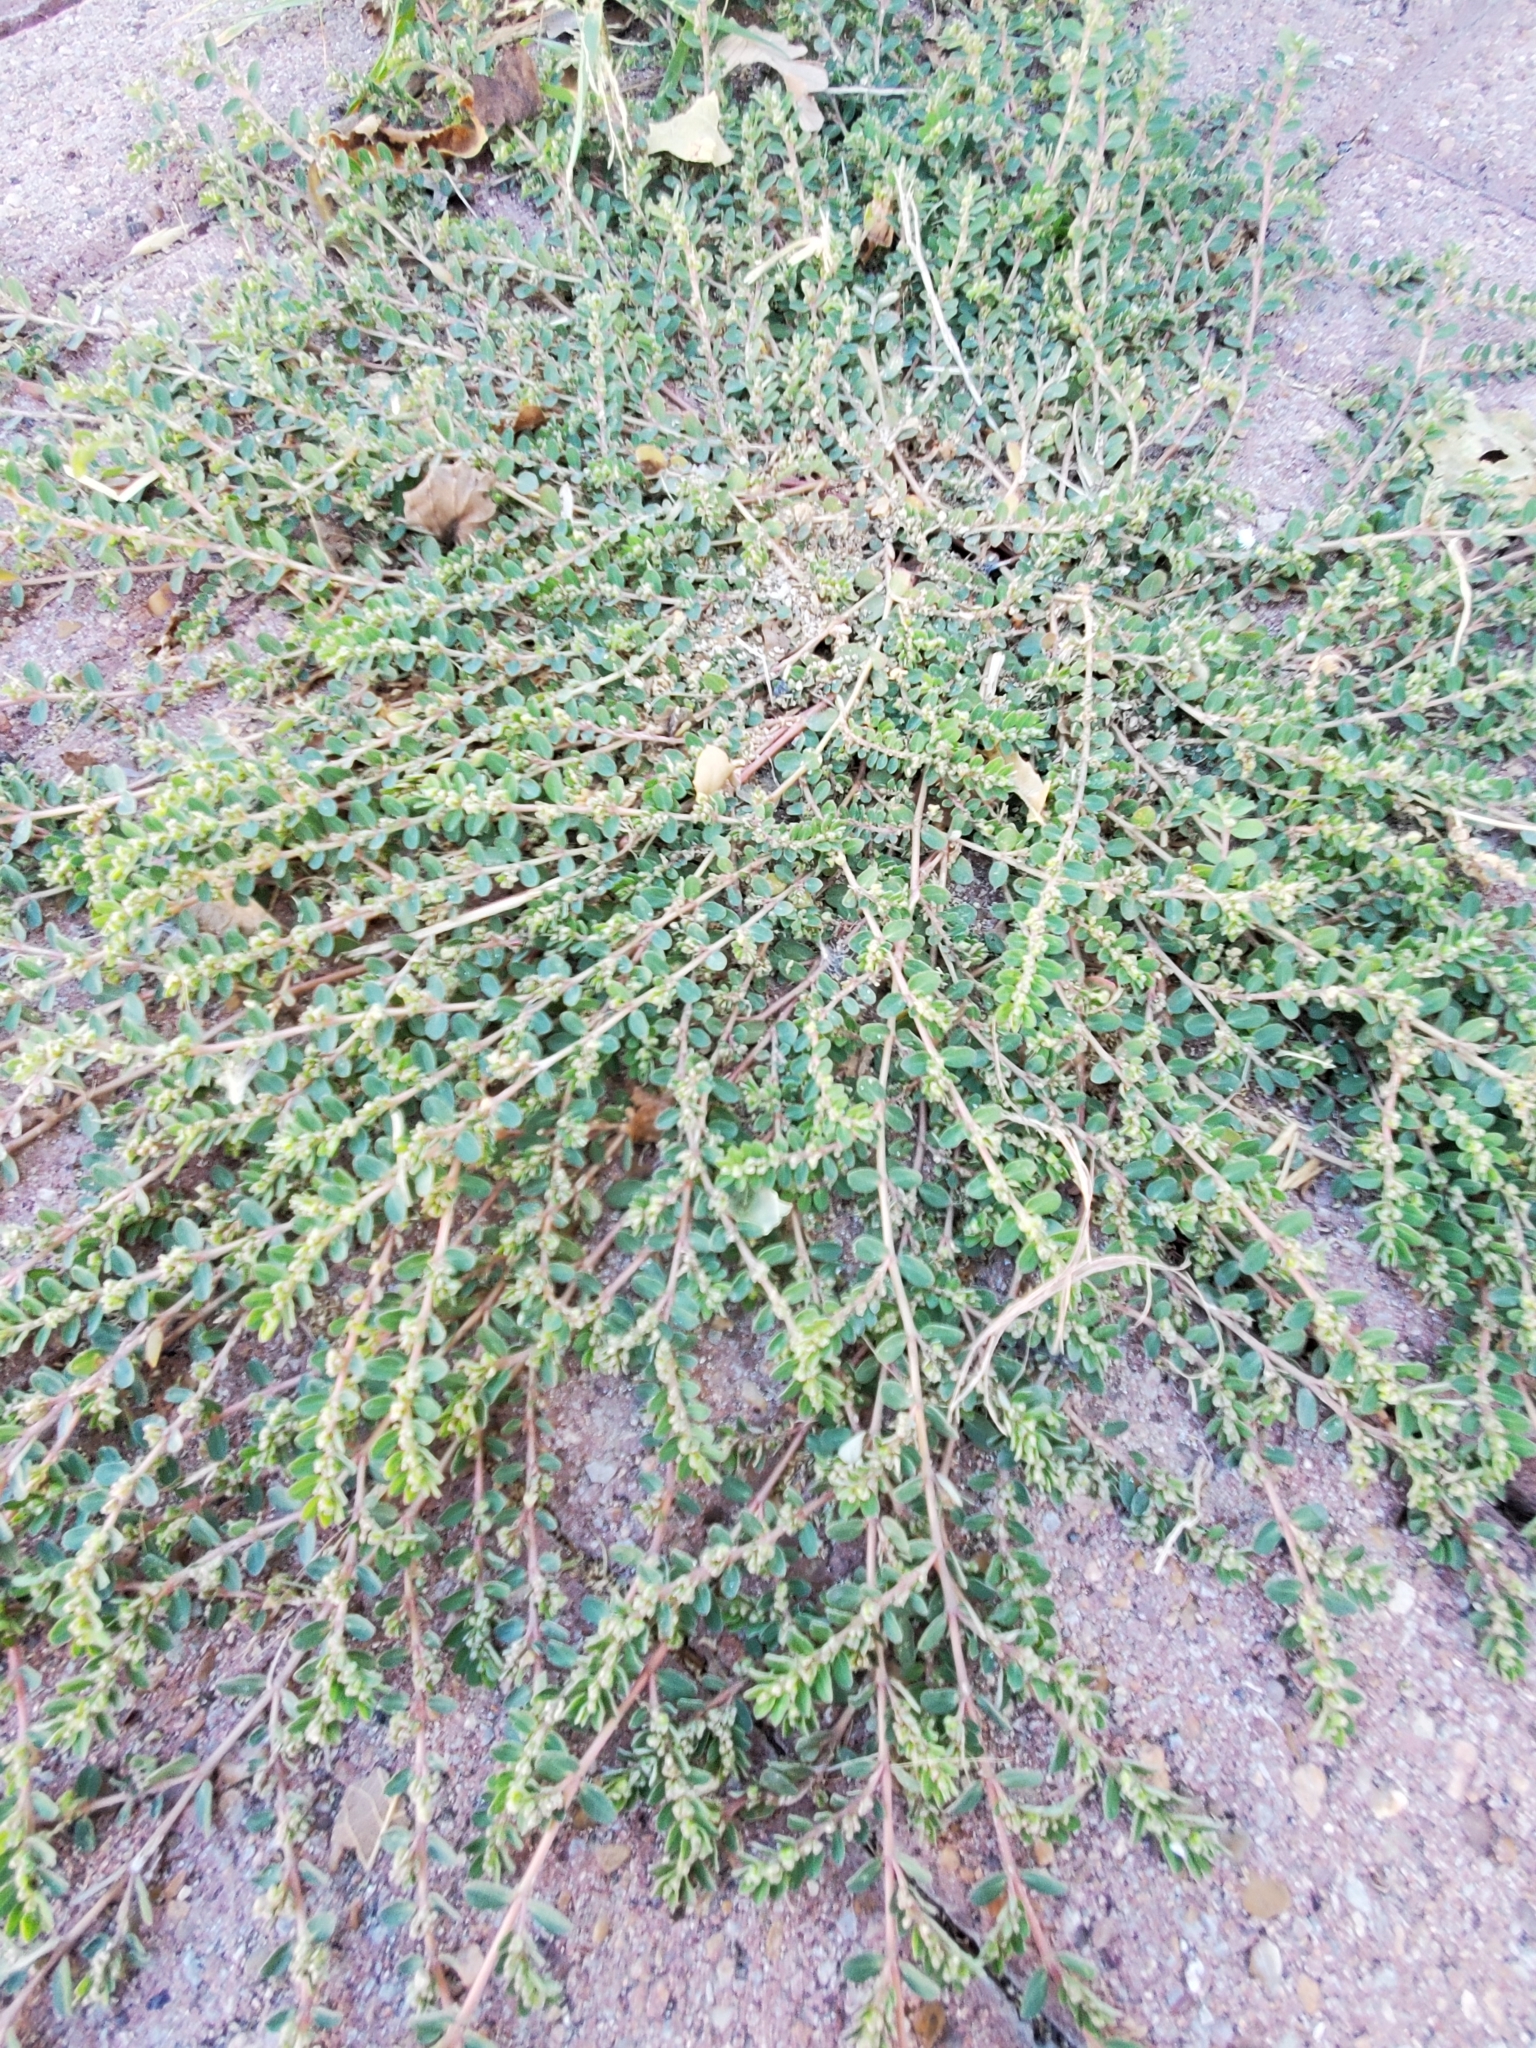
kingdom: Plantae
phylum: Tracheophyta
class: Magnoliopsida
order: Malpighiales
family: Euphorbiaceae
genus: Euphorbia
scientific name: Euphorbia prostrata
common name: Prostrate sandmat
